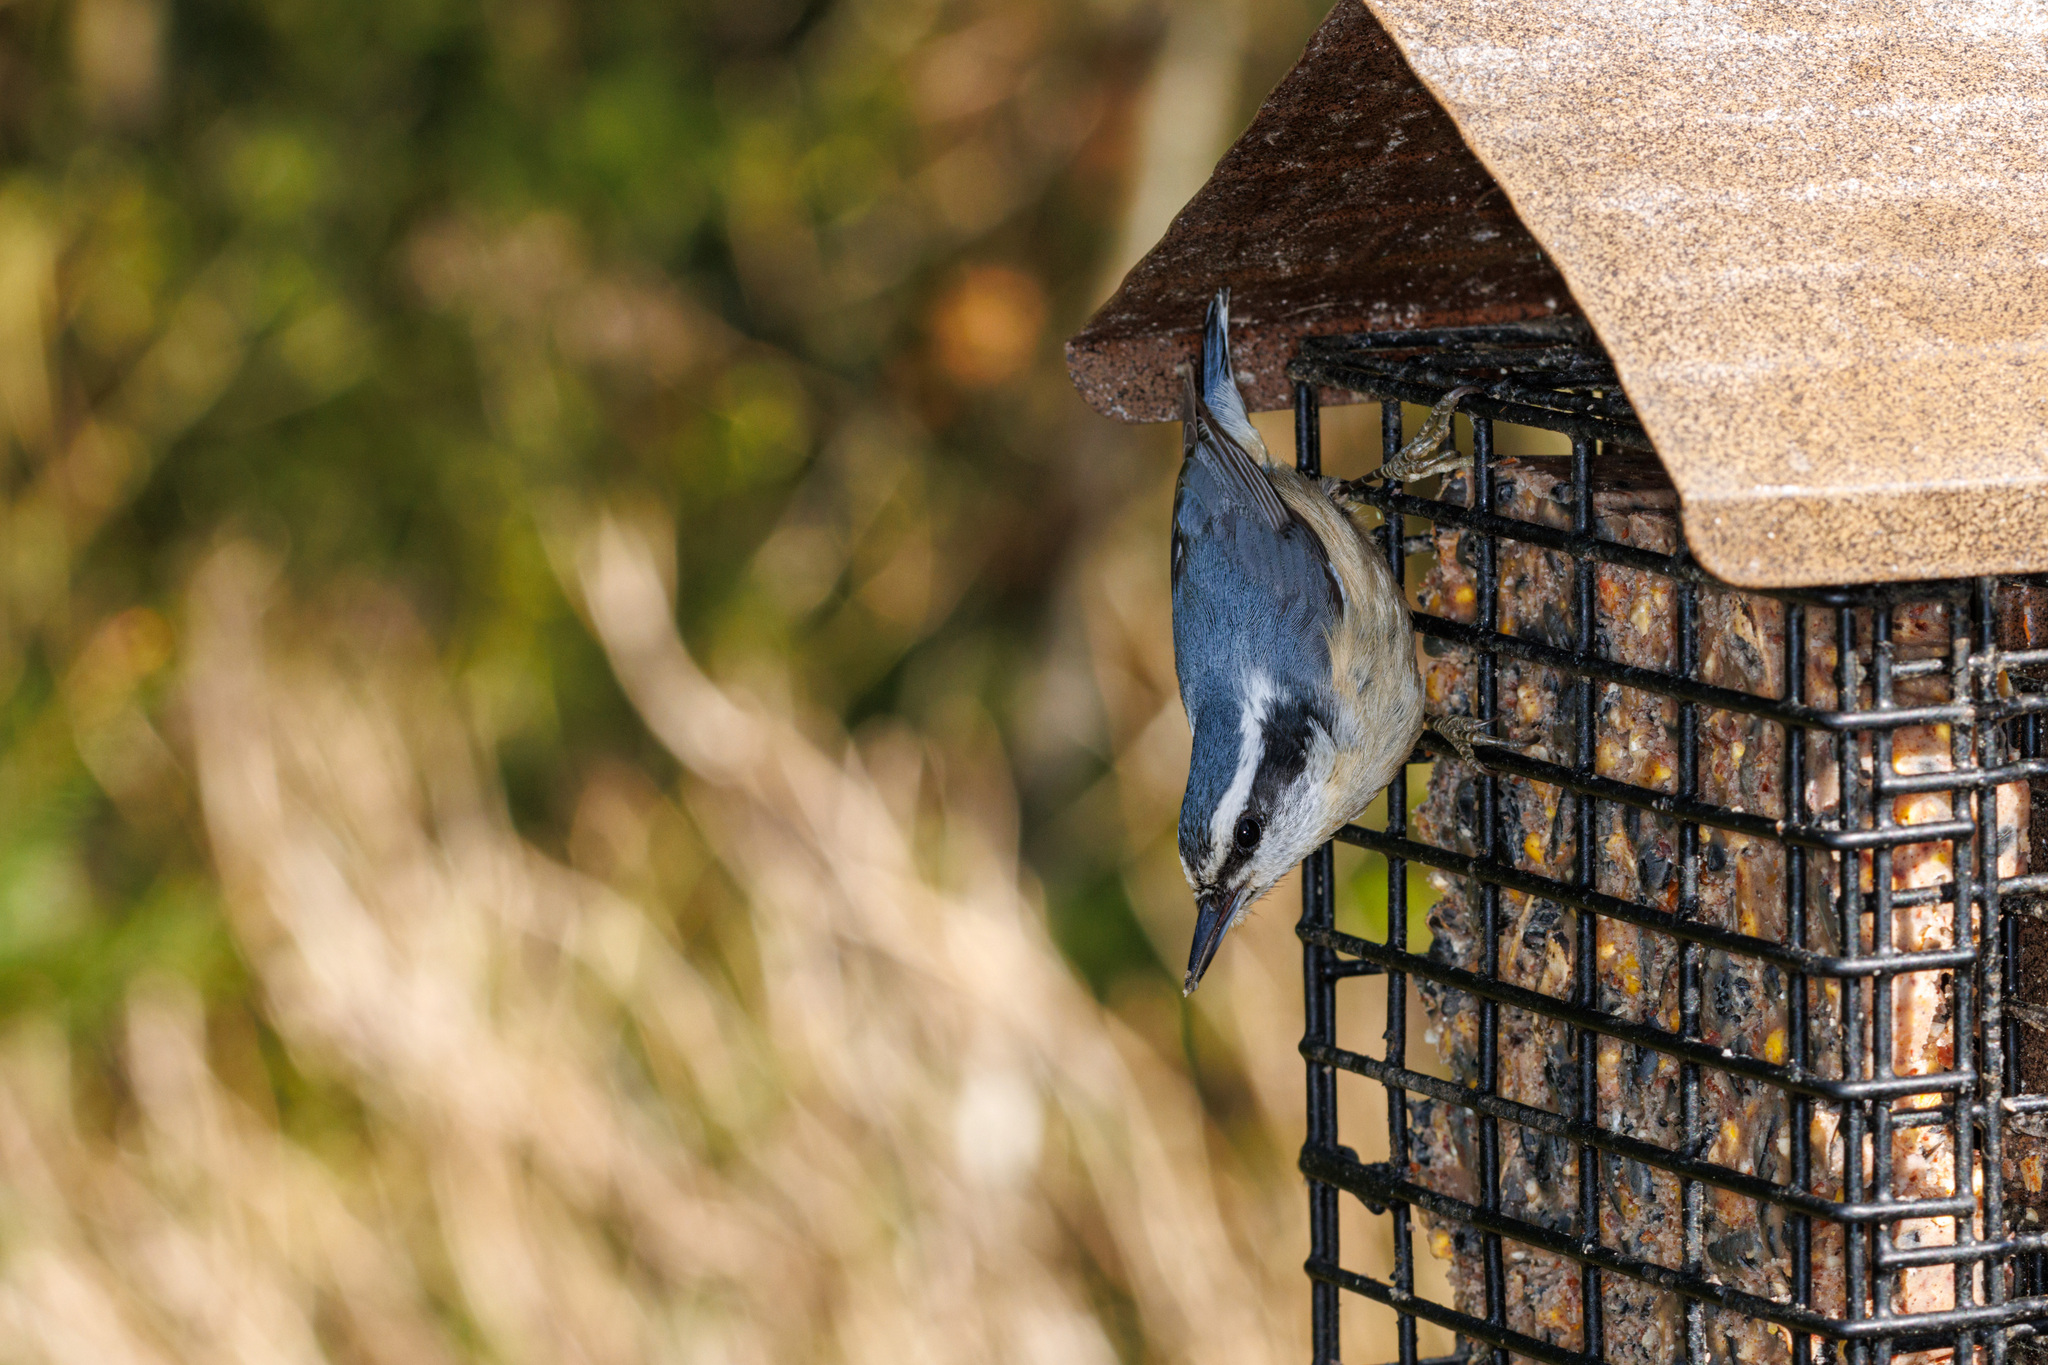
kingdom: Animalia
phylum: Chordata
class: Aves
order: Passeriformes
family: Sittidae
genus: Sitta
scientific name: Sitta canadensis
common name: Red-breasted nuthatch
